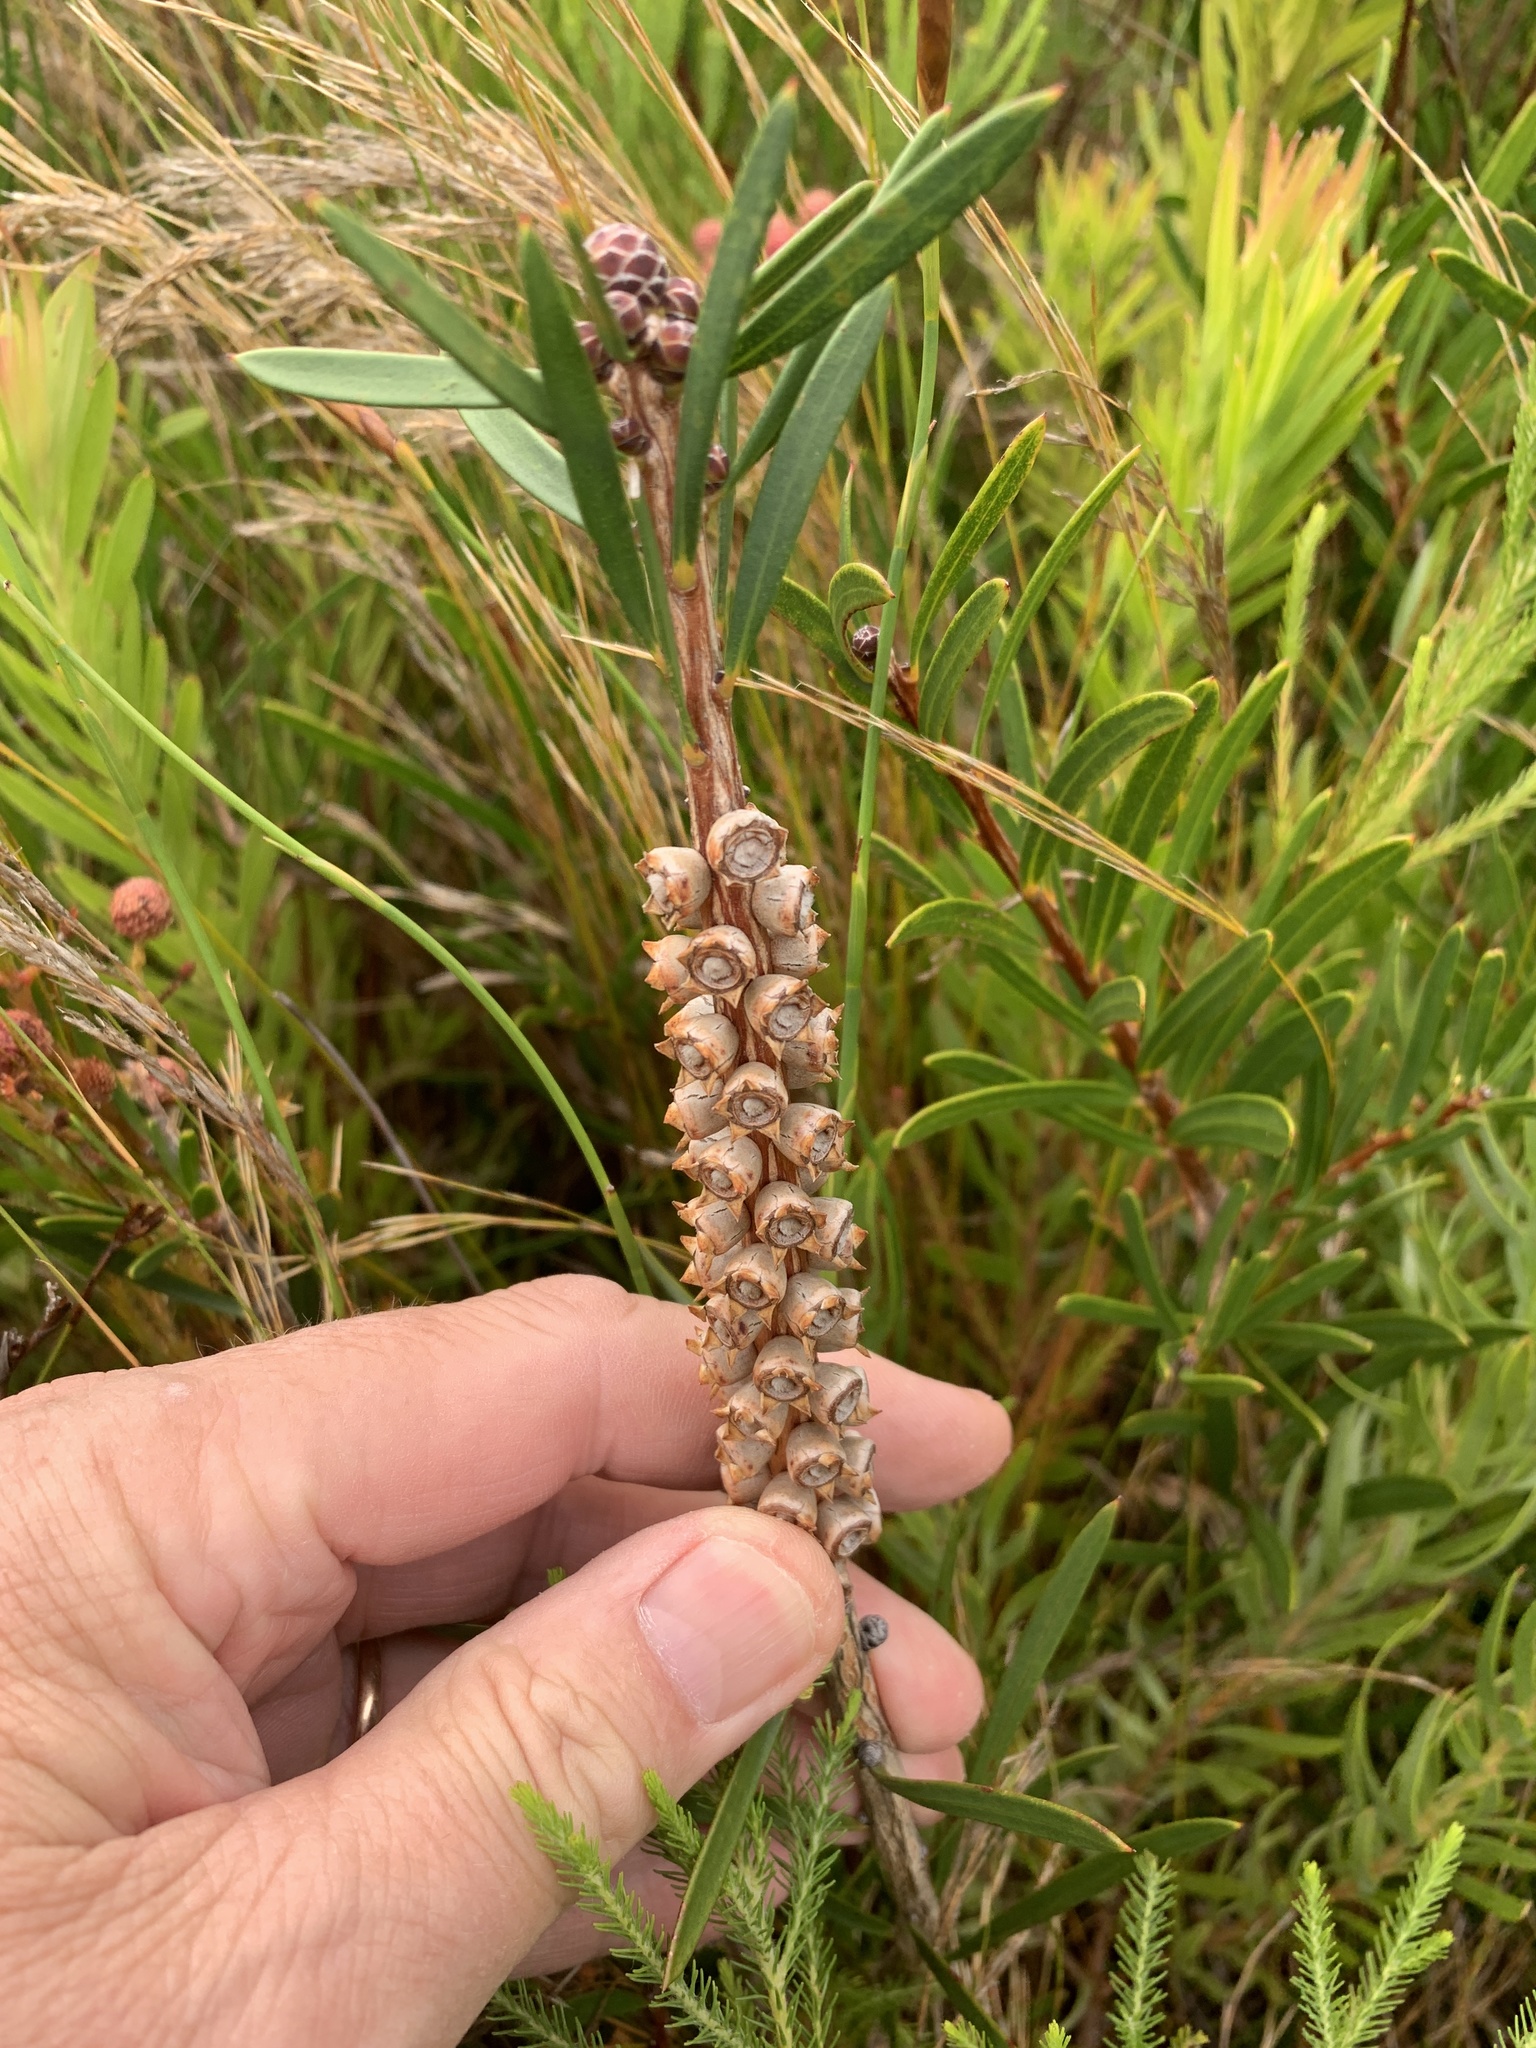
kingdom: Plantae
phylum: Tracheophyta
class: Magnoliopsida
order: Myrtales
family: Myrtaceae
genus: Callistemon
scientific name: Callistemon linearis
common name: Narrow-leaf bottlebrush
